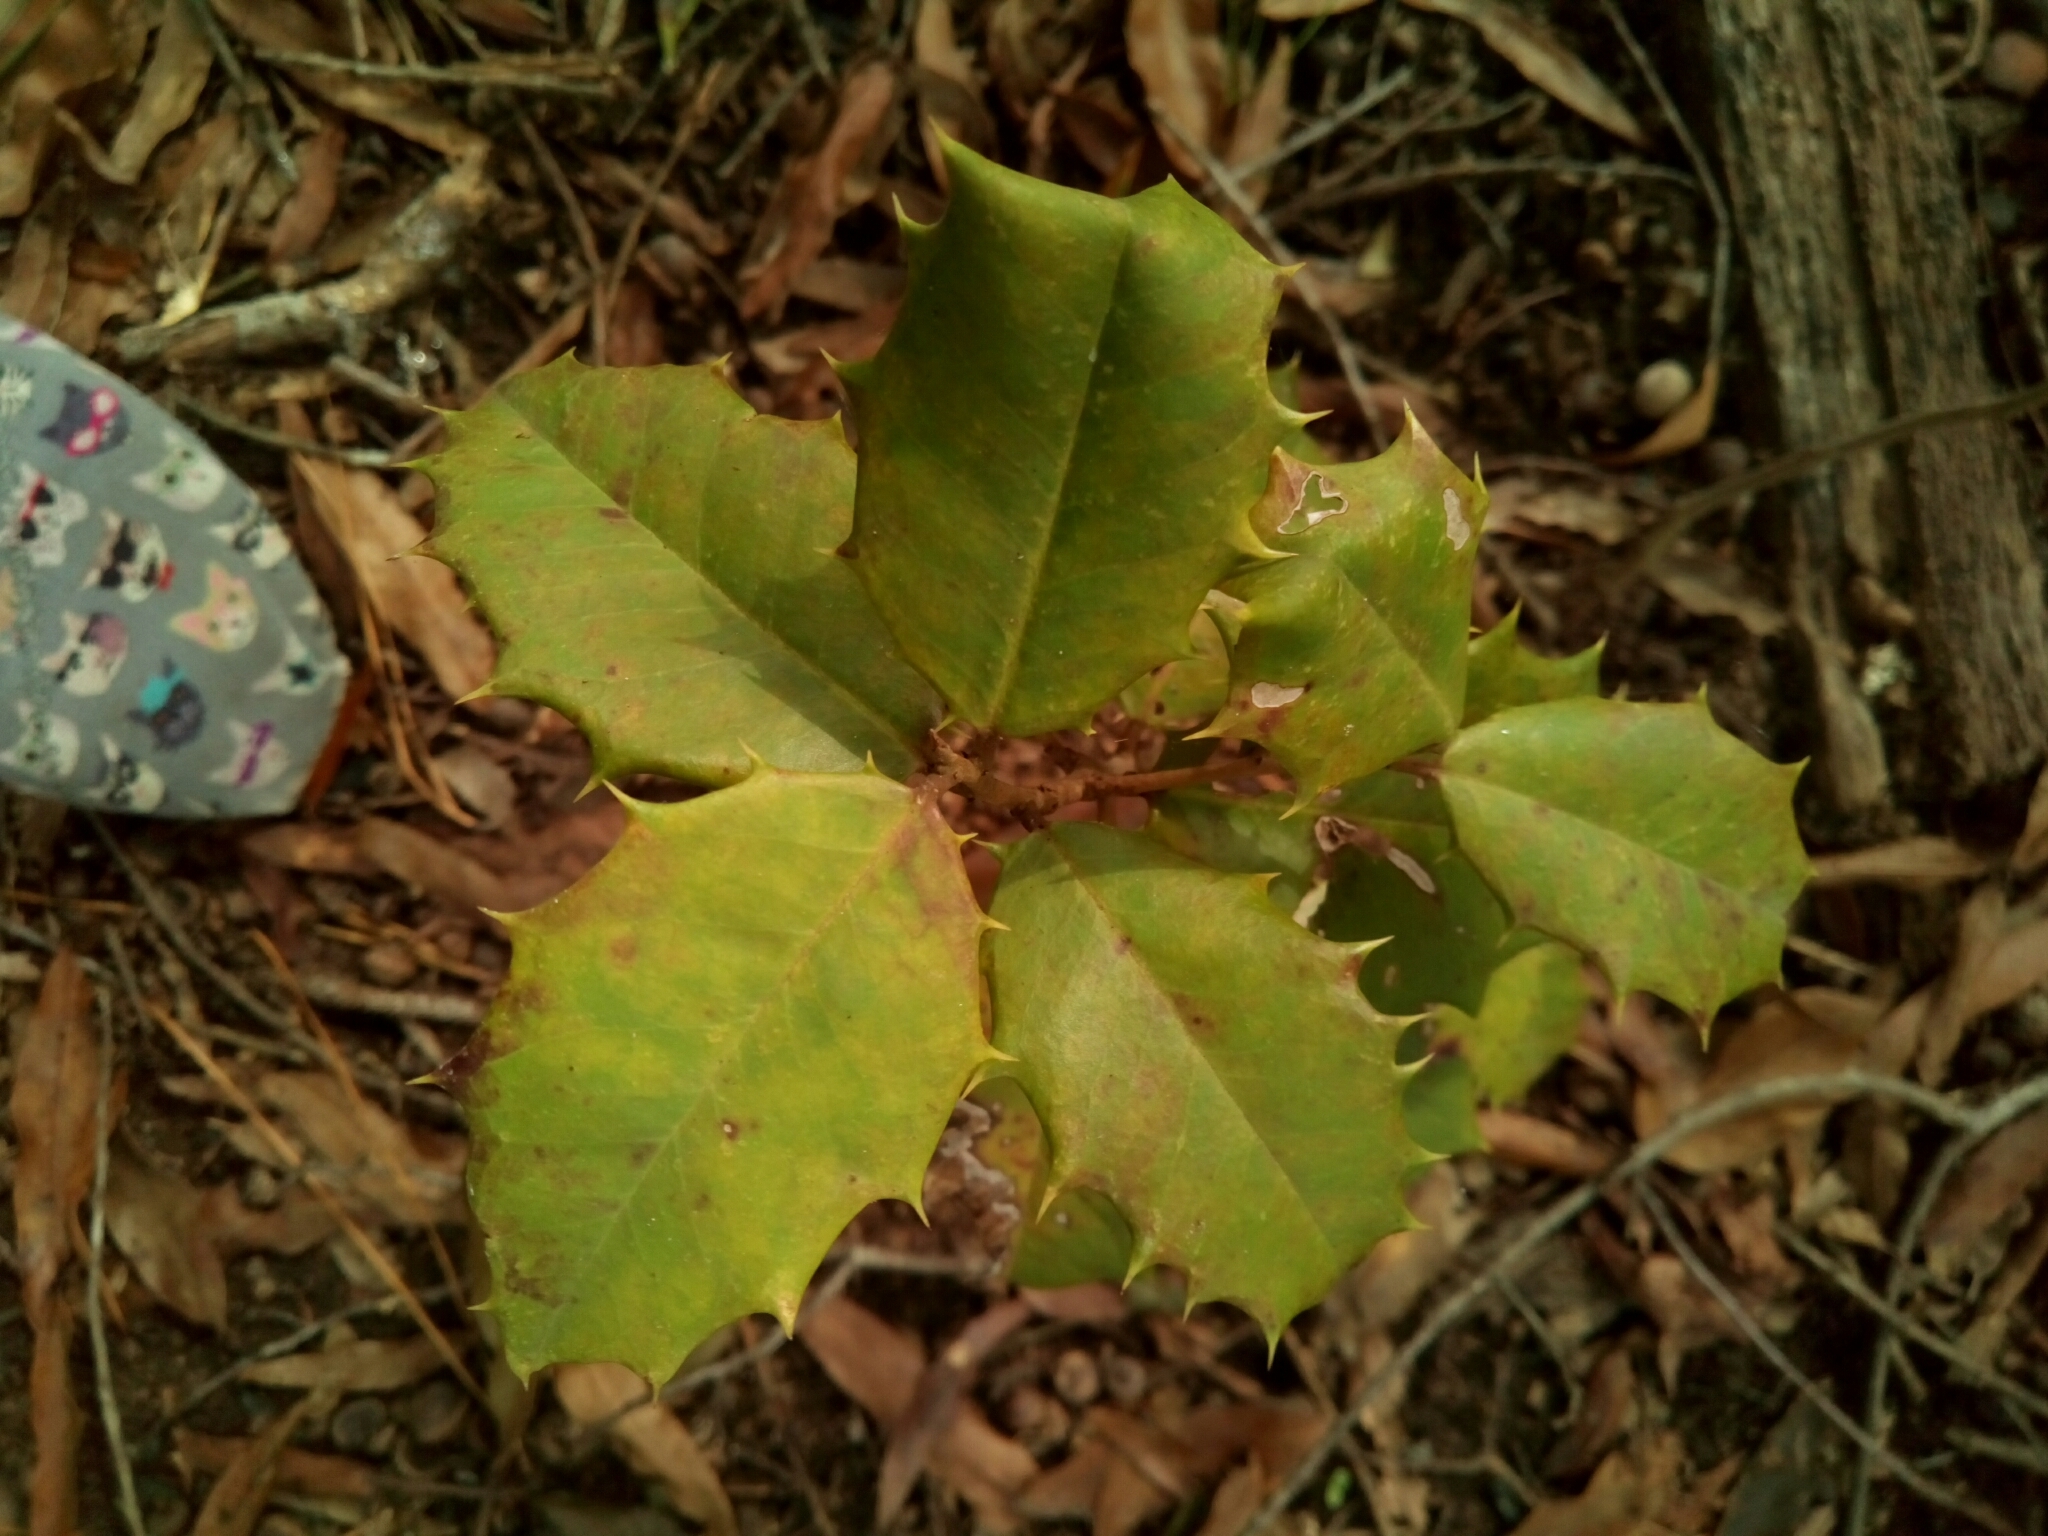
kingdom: Plantae
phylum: Tracheophyta
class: Magnoliopsida
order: Aquifoliales
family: Aquifoliaceae
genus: Ilex
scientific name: Ilex opaca
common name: American holly
